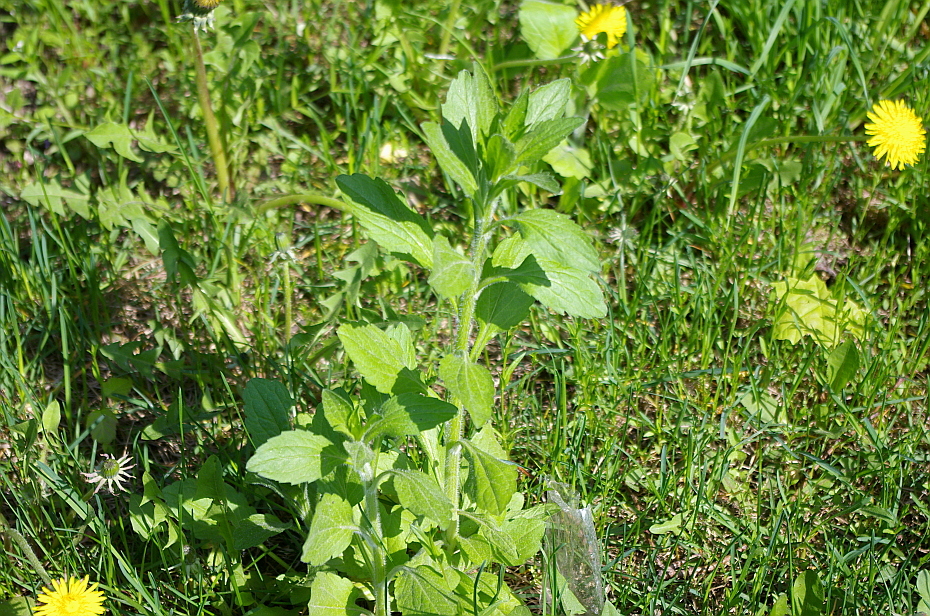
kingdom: Plantae
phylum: Tracheophyta
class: Magnoliopsida
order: Asterales
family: Asteraceae
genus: Erigeron
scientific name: Erigeron annuus
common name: Tall fleabane
